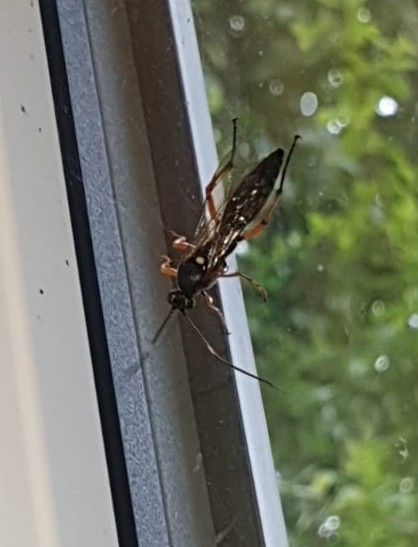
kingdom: Animalia
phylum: Arthropoda
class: Insecta
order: Hymenoptera
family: Ichneumonidae
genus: Diphyus
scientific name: Diphyus quadripunctorius
